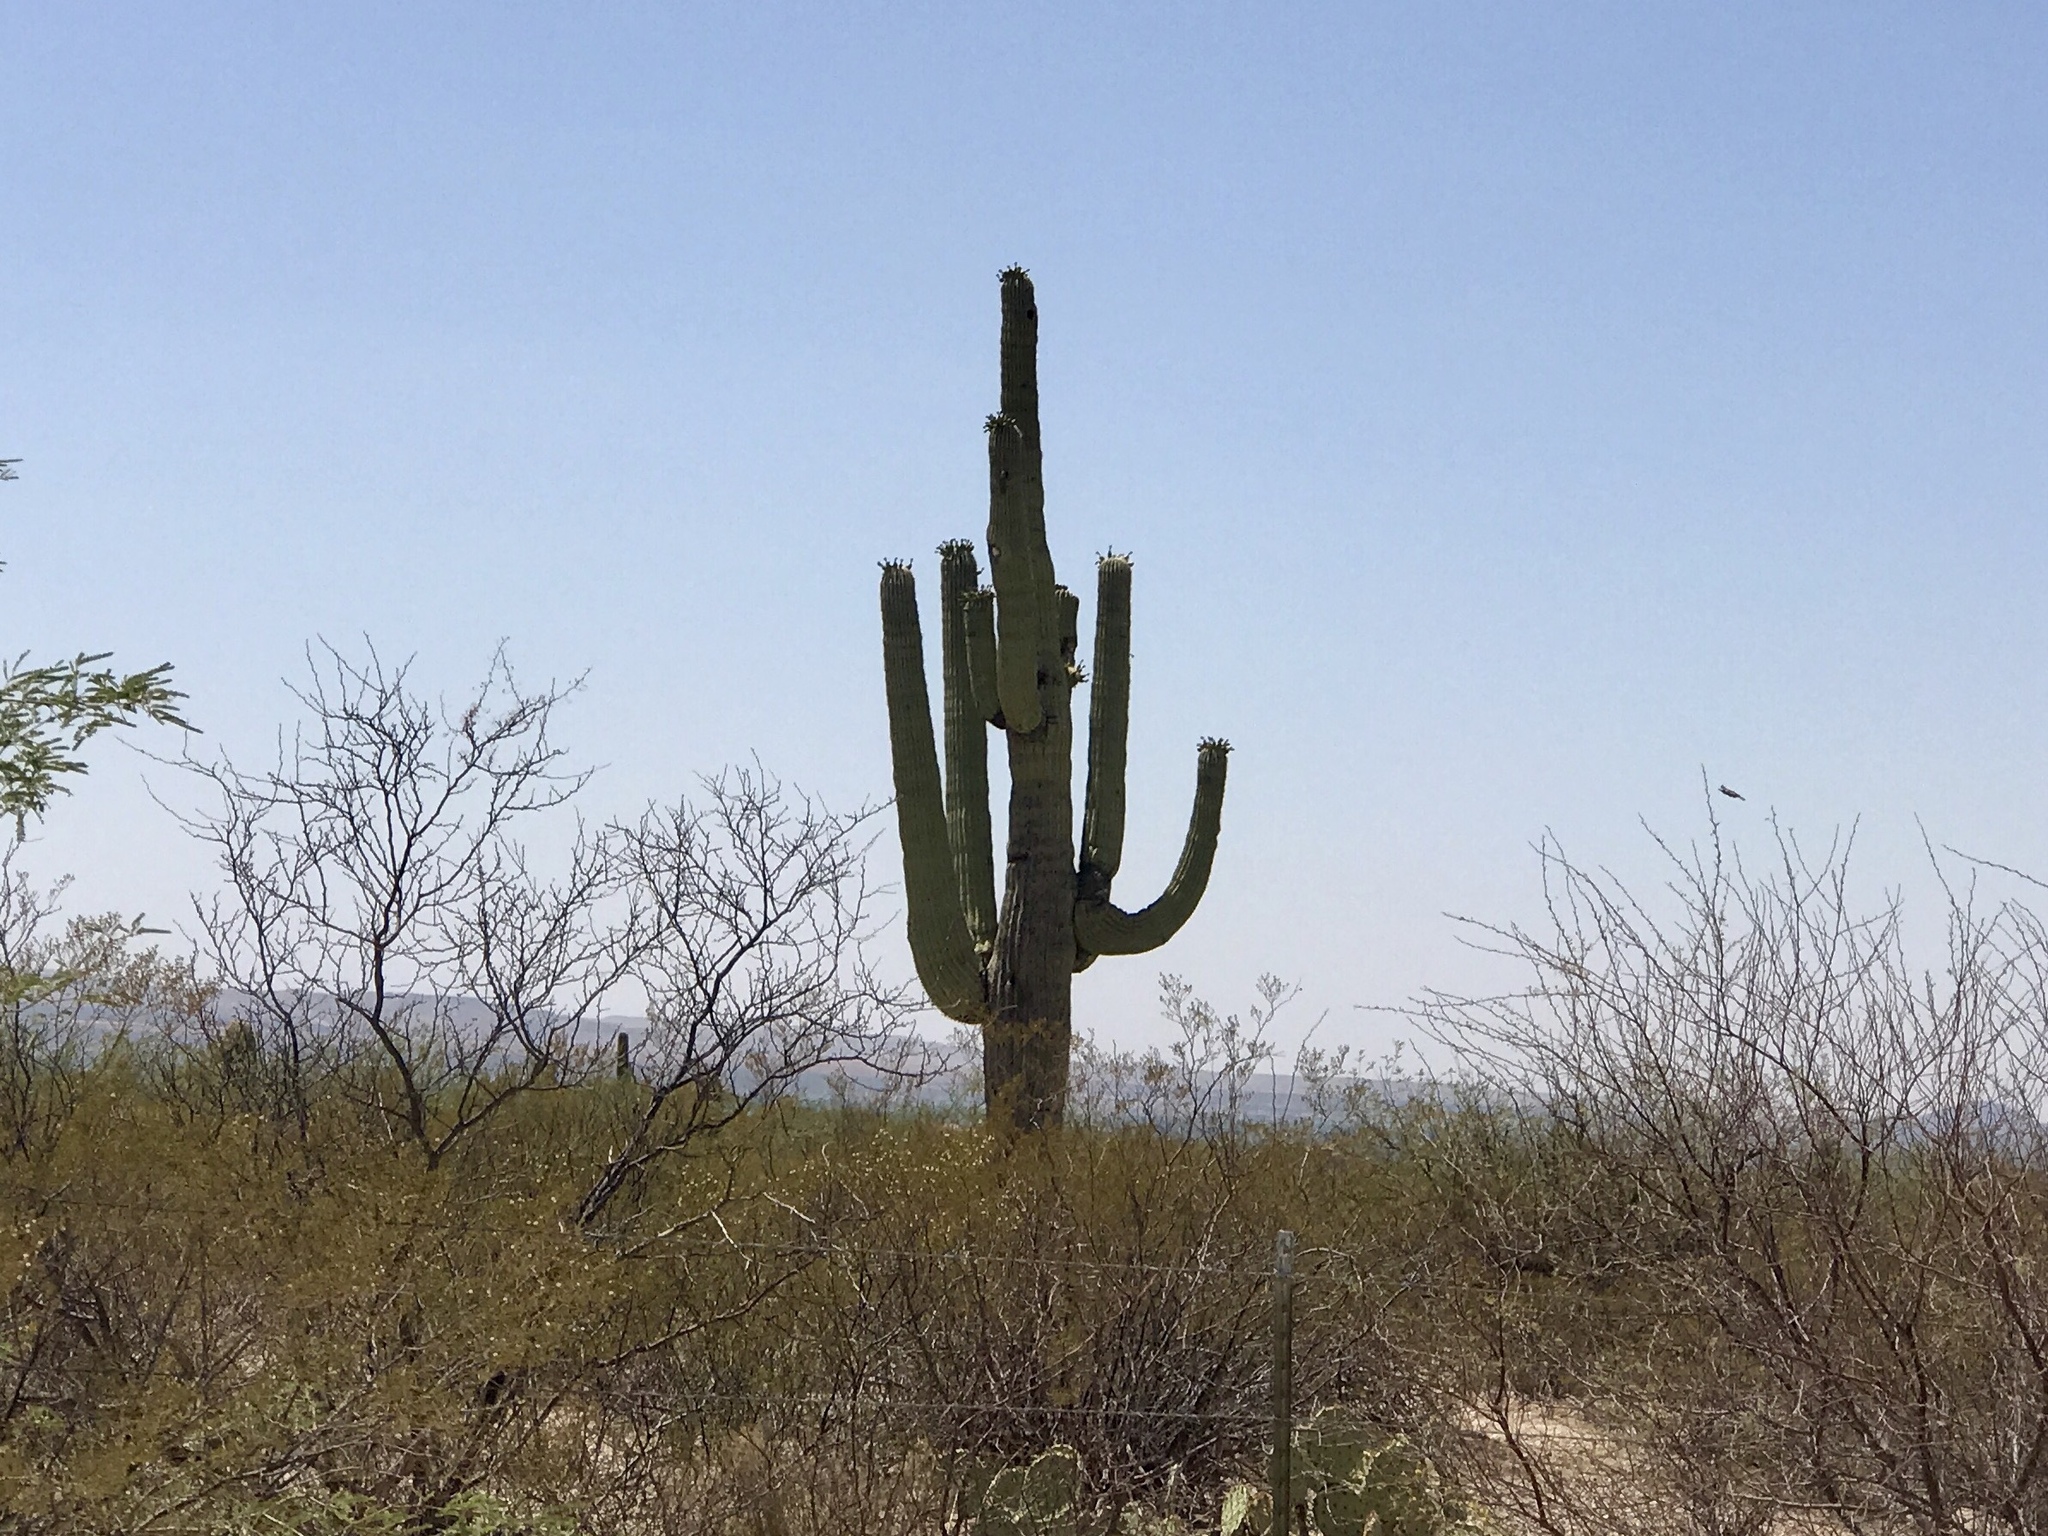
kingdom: Plantae
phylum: Tracheophyta
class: Magnoliopsida
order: Caryophyllales
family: Cactaceae
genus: Carnegiea
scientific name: Carnegiea gigantea
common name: Saguaro
